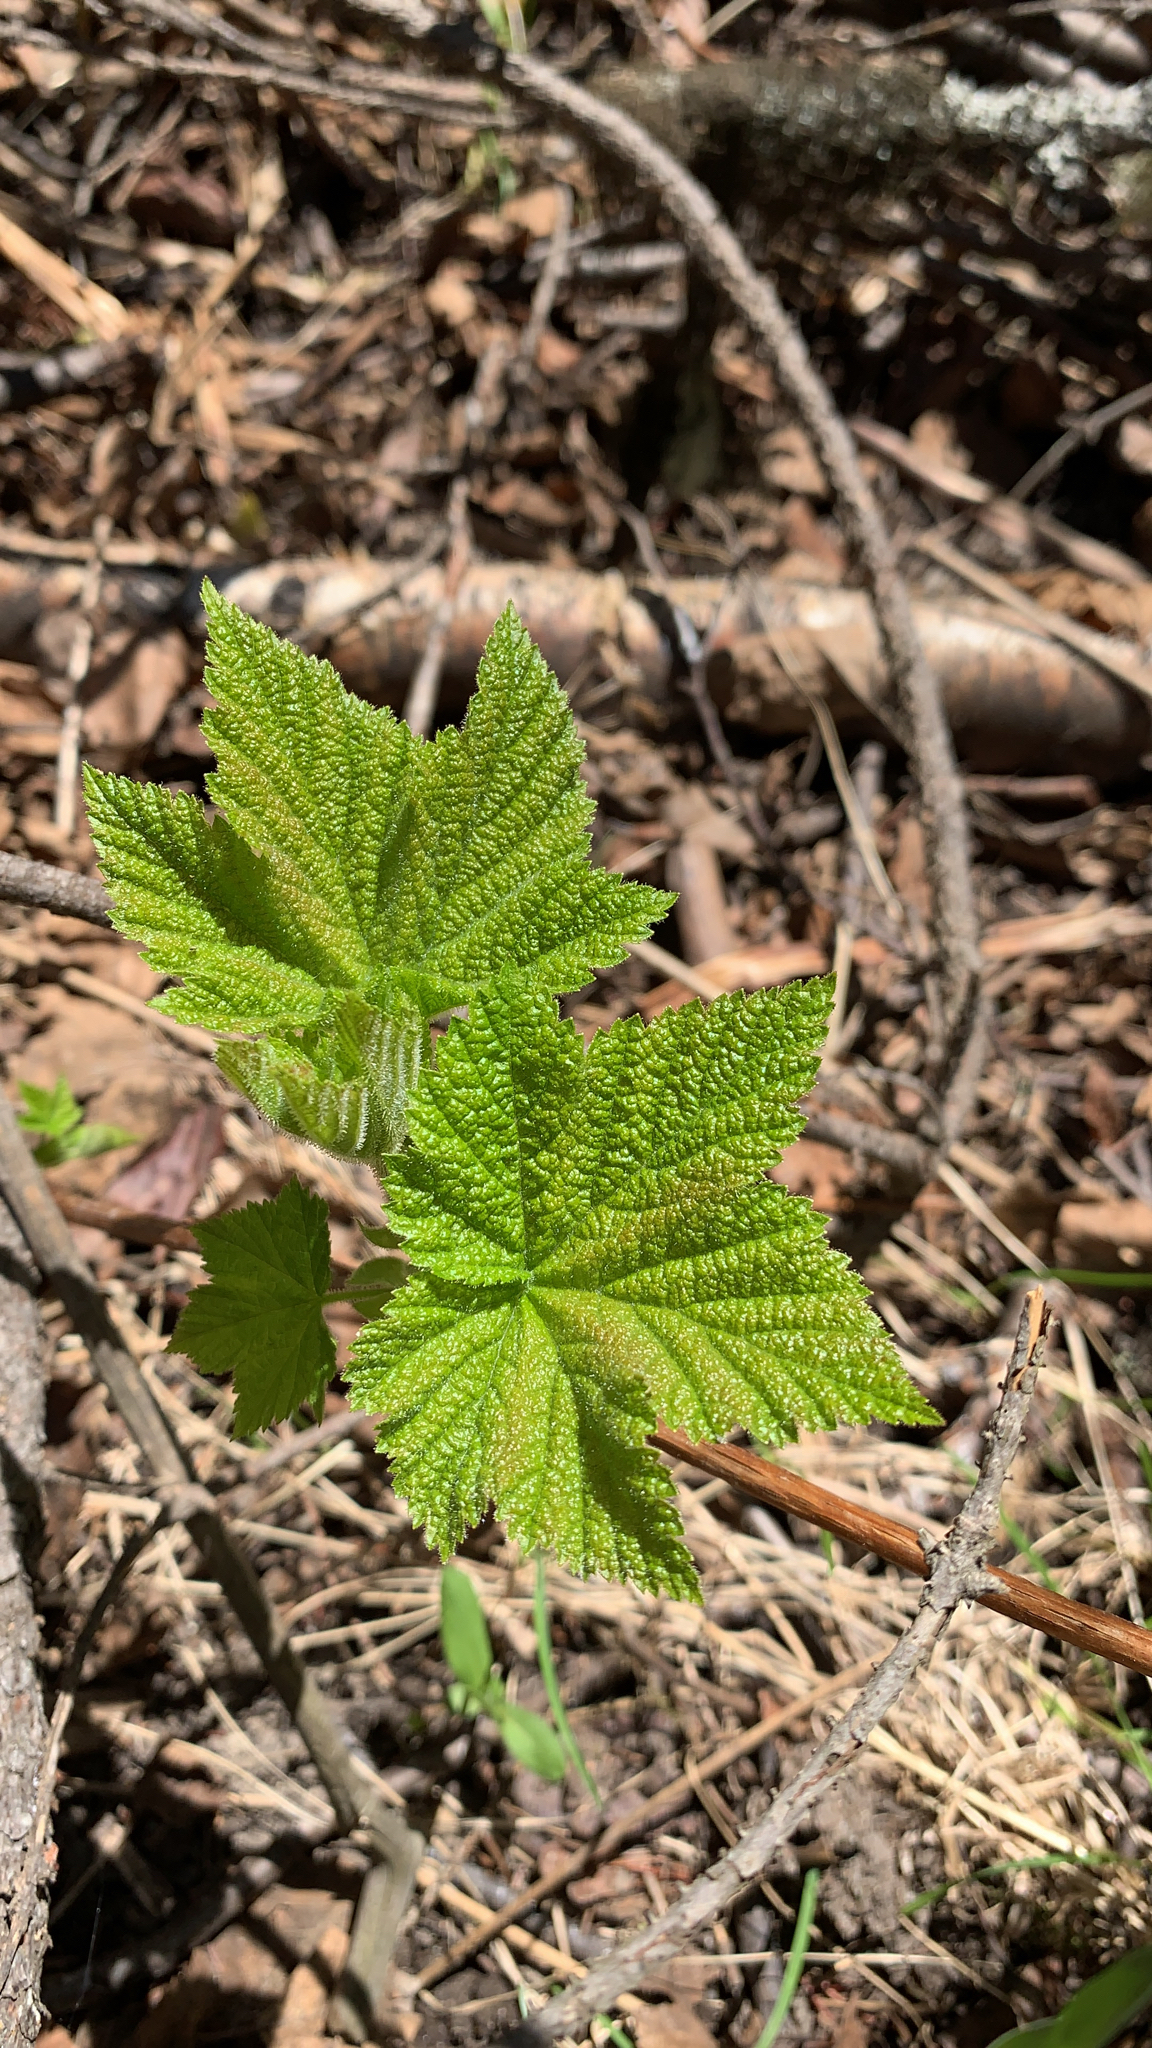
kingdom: Plantae
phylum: Tracheophyta
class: Magnoliopsida
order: Rosales
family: Rosaceae
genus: Rubus
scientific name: Rubus parviflorus
